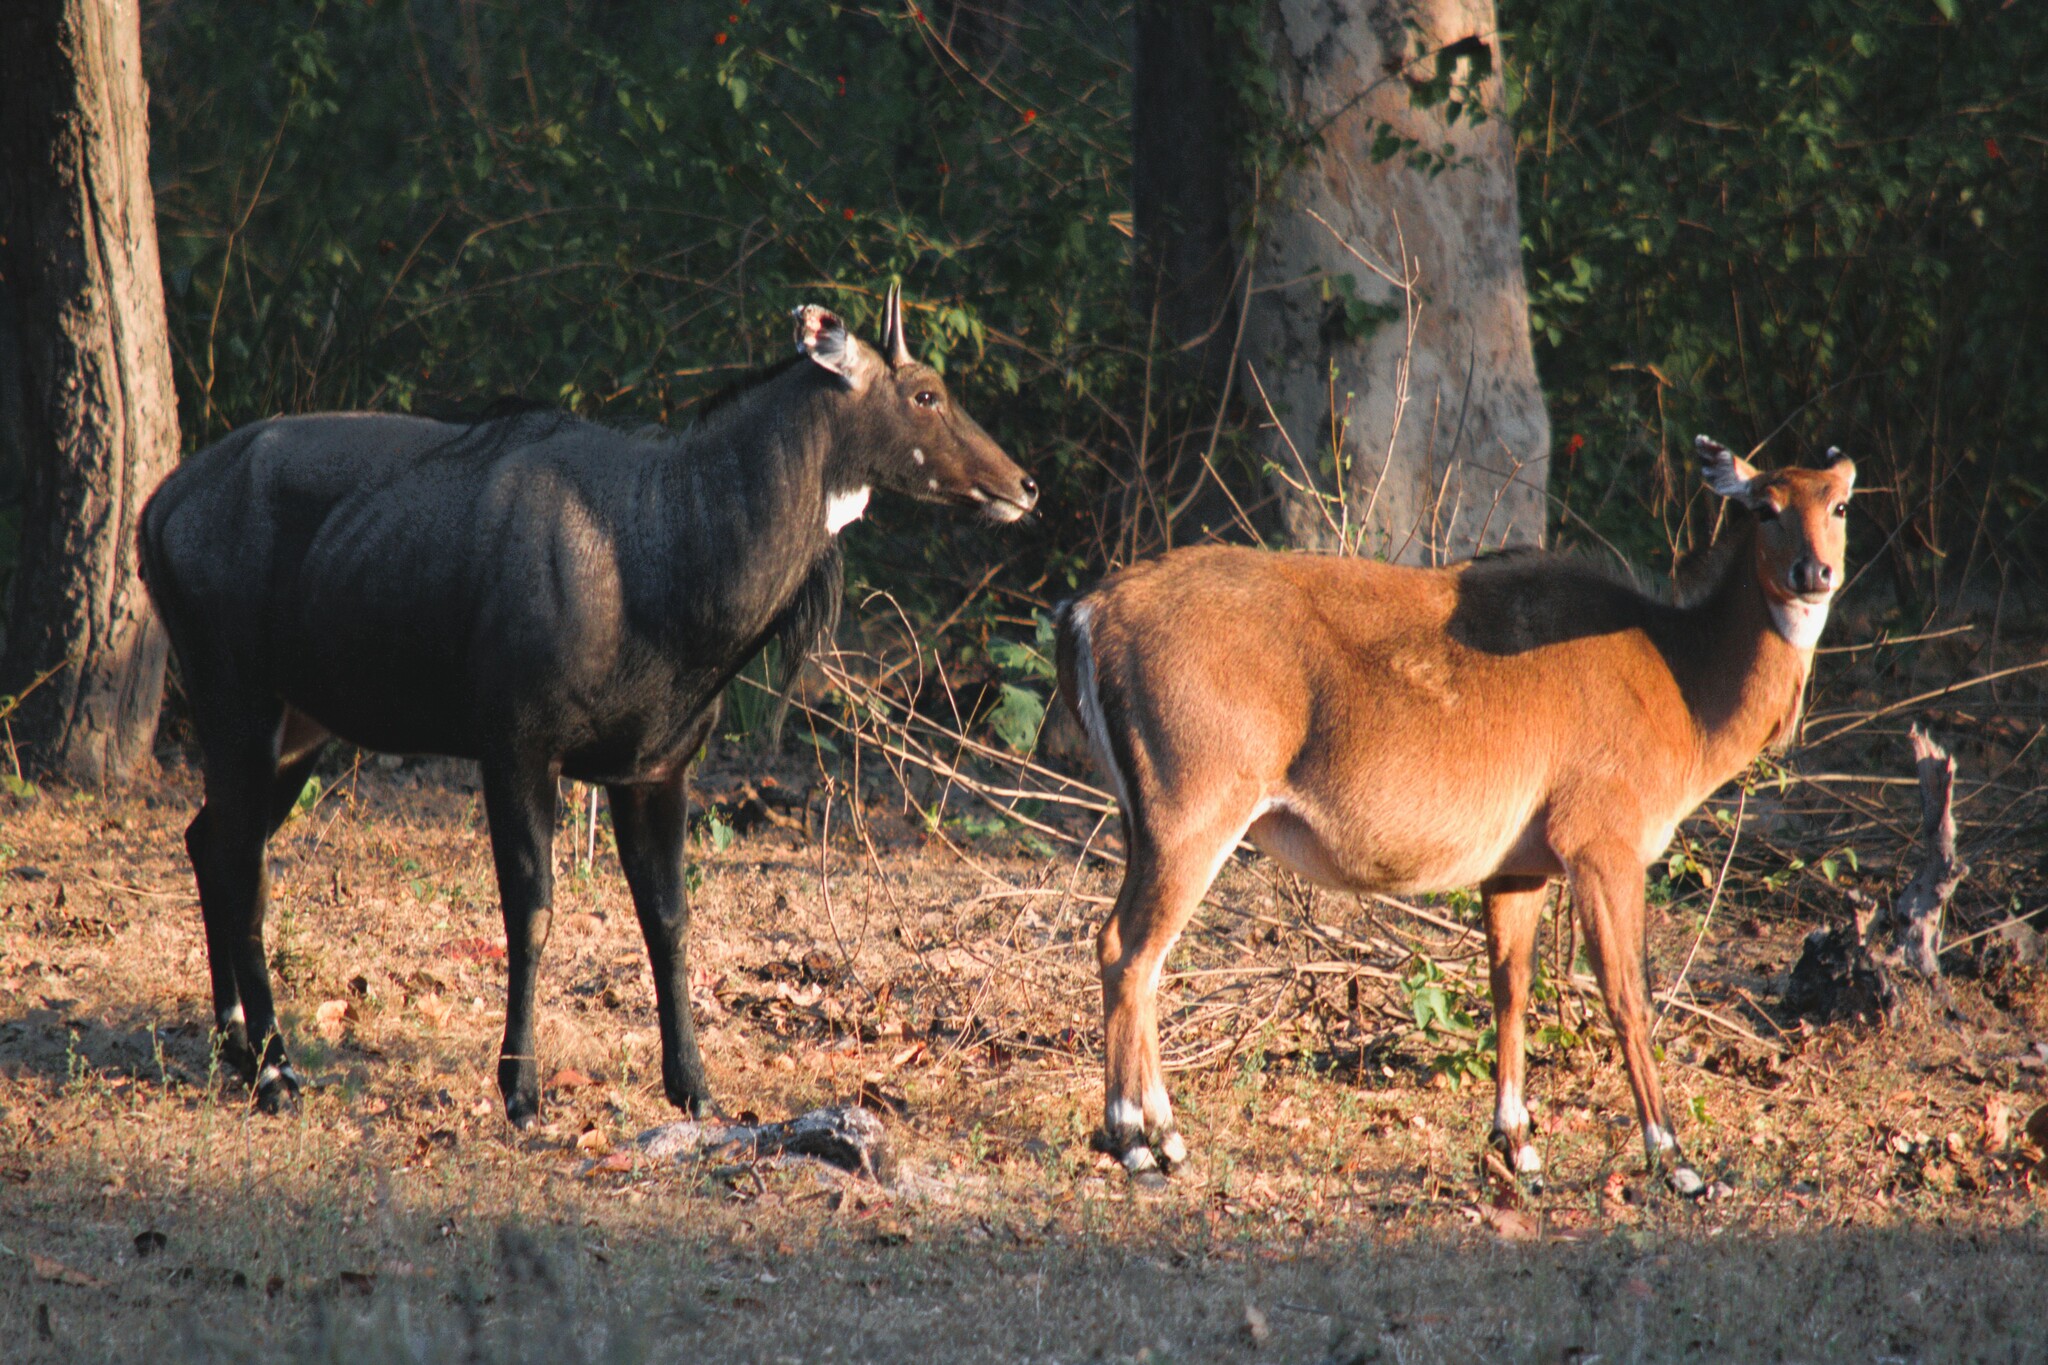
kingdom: Animalia
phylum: Chordata
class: Mammalia
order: Artiodactyla
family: Bovidae
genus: Boselaphus
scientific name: Boselaphus tragocamelus
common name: Nilgai
